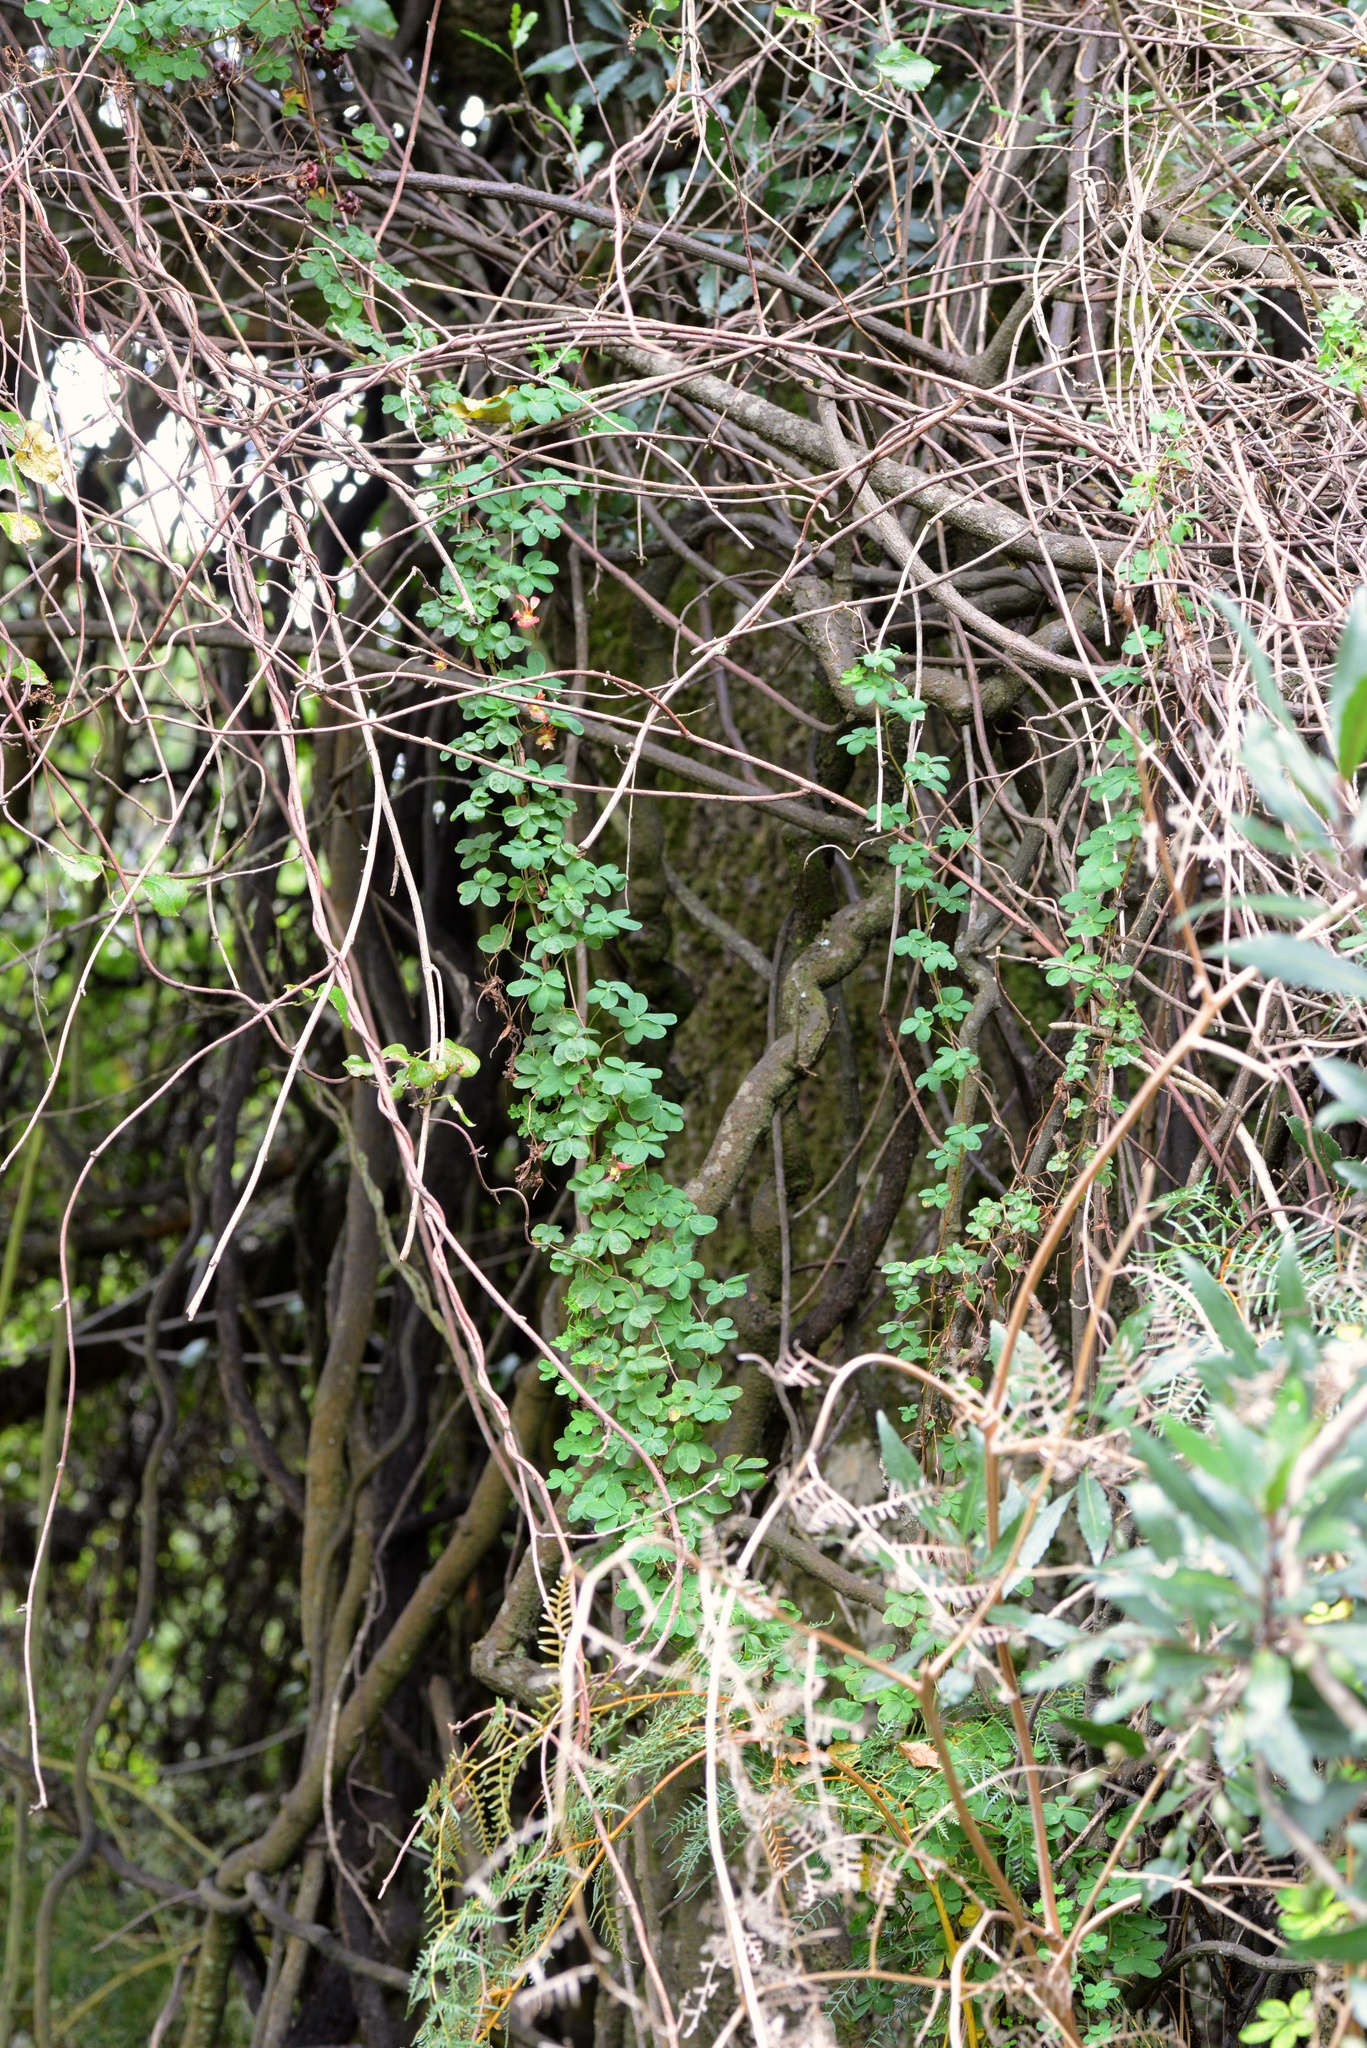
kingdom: Plantae
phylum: Tracheophyta
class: Magnoliopsida
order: Brassicales
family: Tropaeolaceae
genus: Tropaeolum
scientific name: Tropaeolum speciosum
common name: Flame nasturtium
